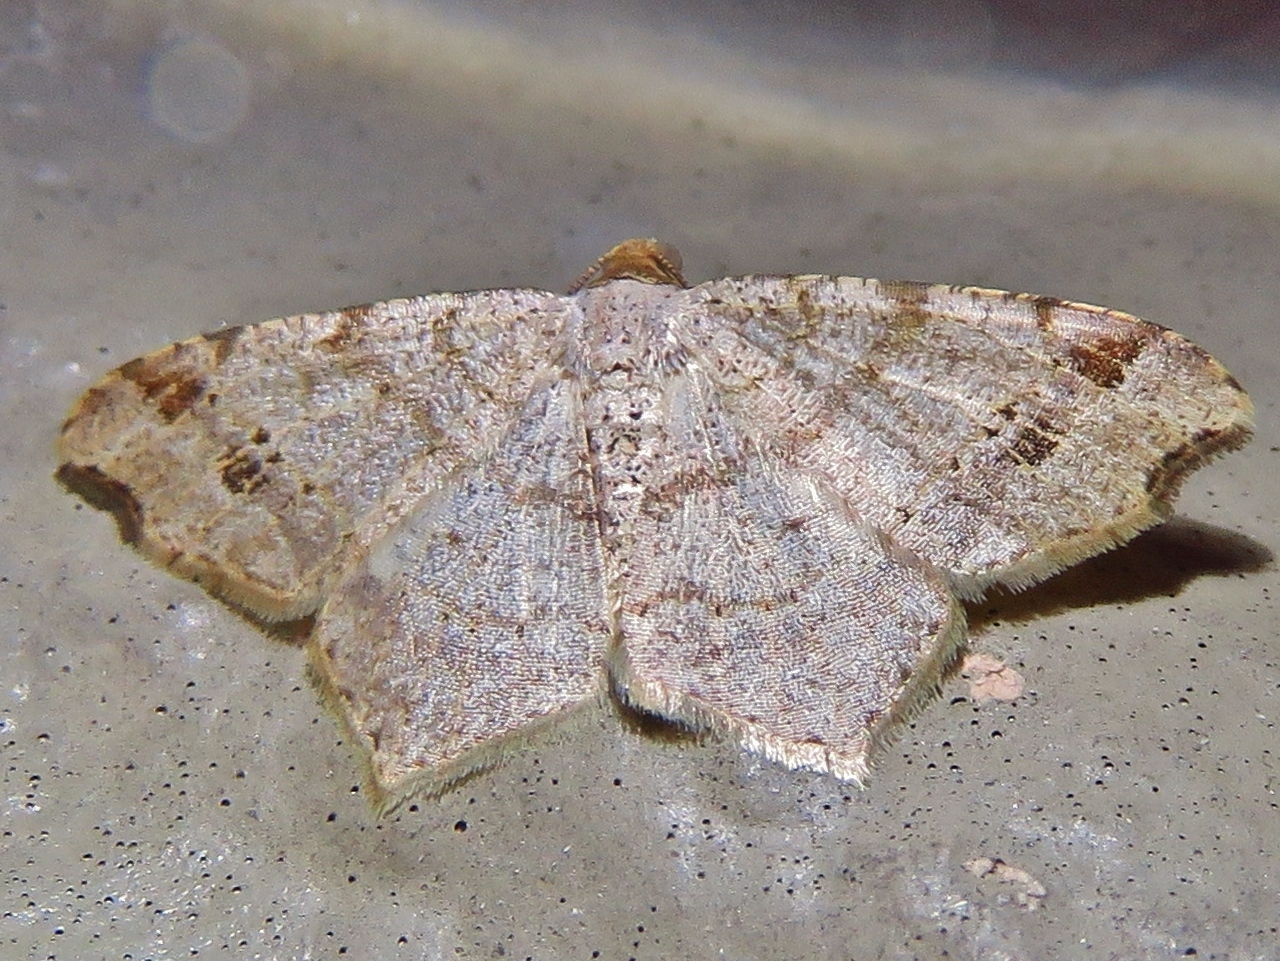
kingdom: Animalia
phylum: Arthropoda
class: Insecta
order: Lepidoptera
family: Geometridae
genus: Macaria
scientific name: Macaria aemulataria
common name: Common angle
